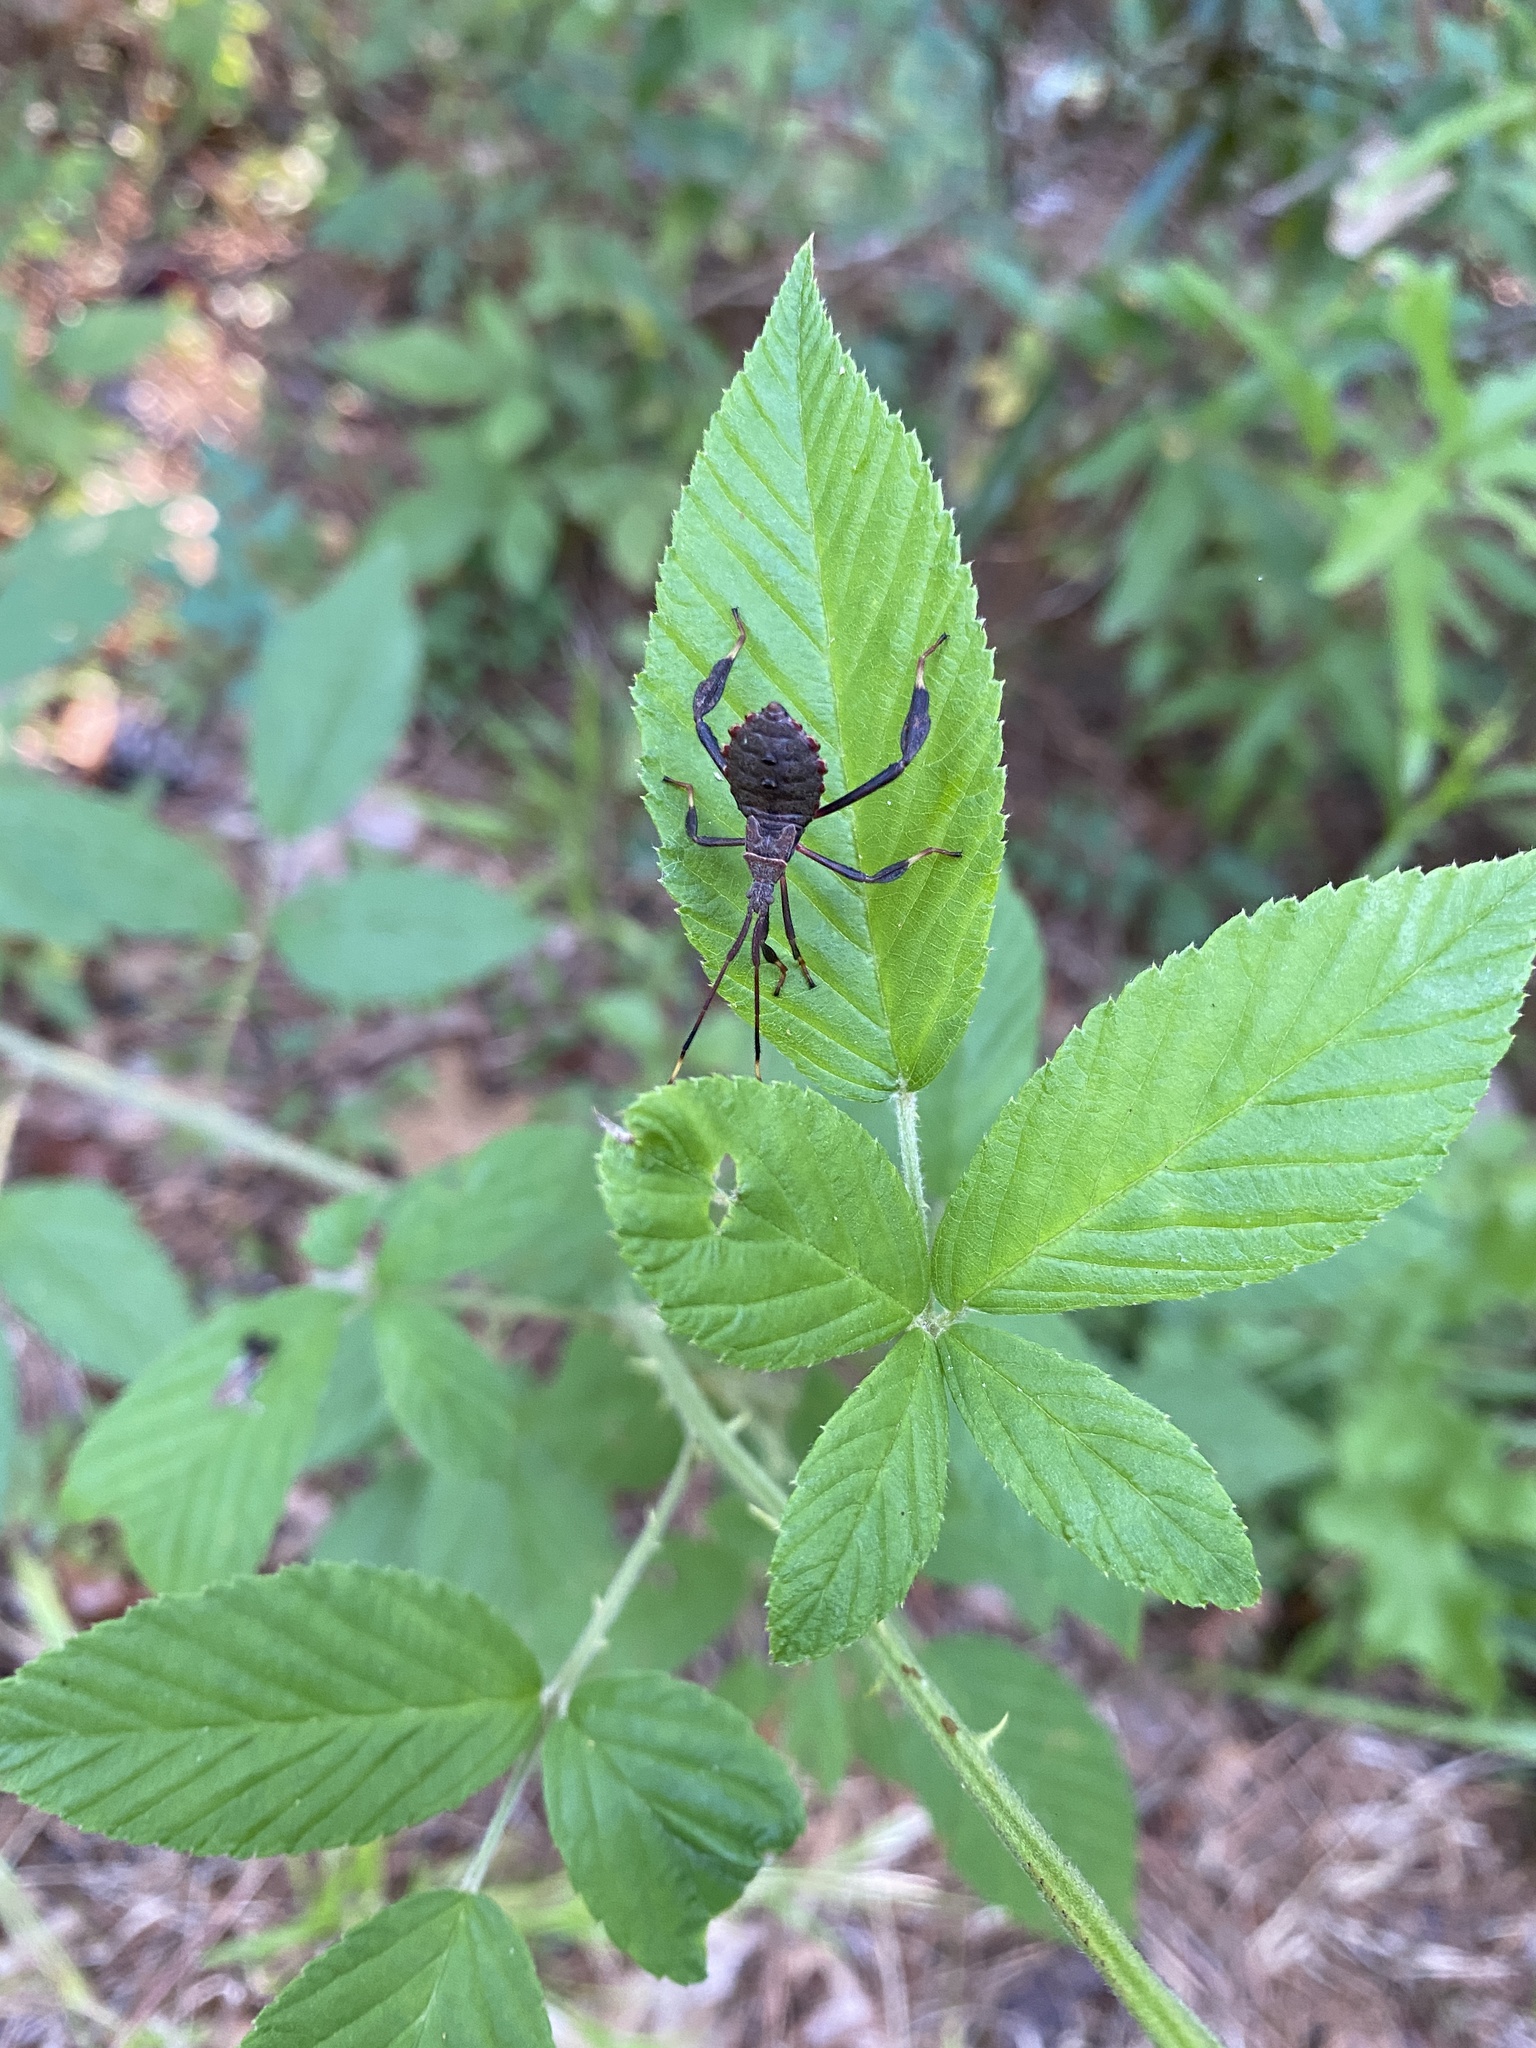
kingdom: Animalia
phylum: Arthropoda
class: Insecta
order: Hemiptera
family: Coreidae
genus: Acanthocephala
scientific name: Acanthocephala terminalis
